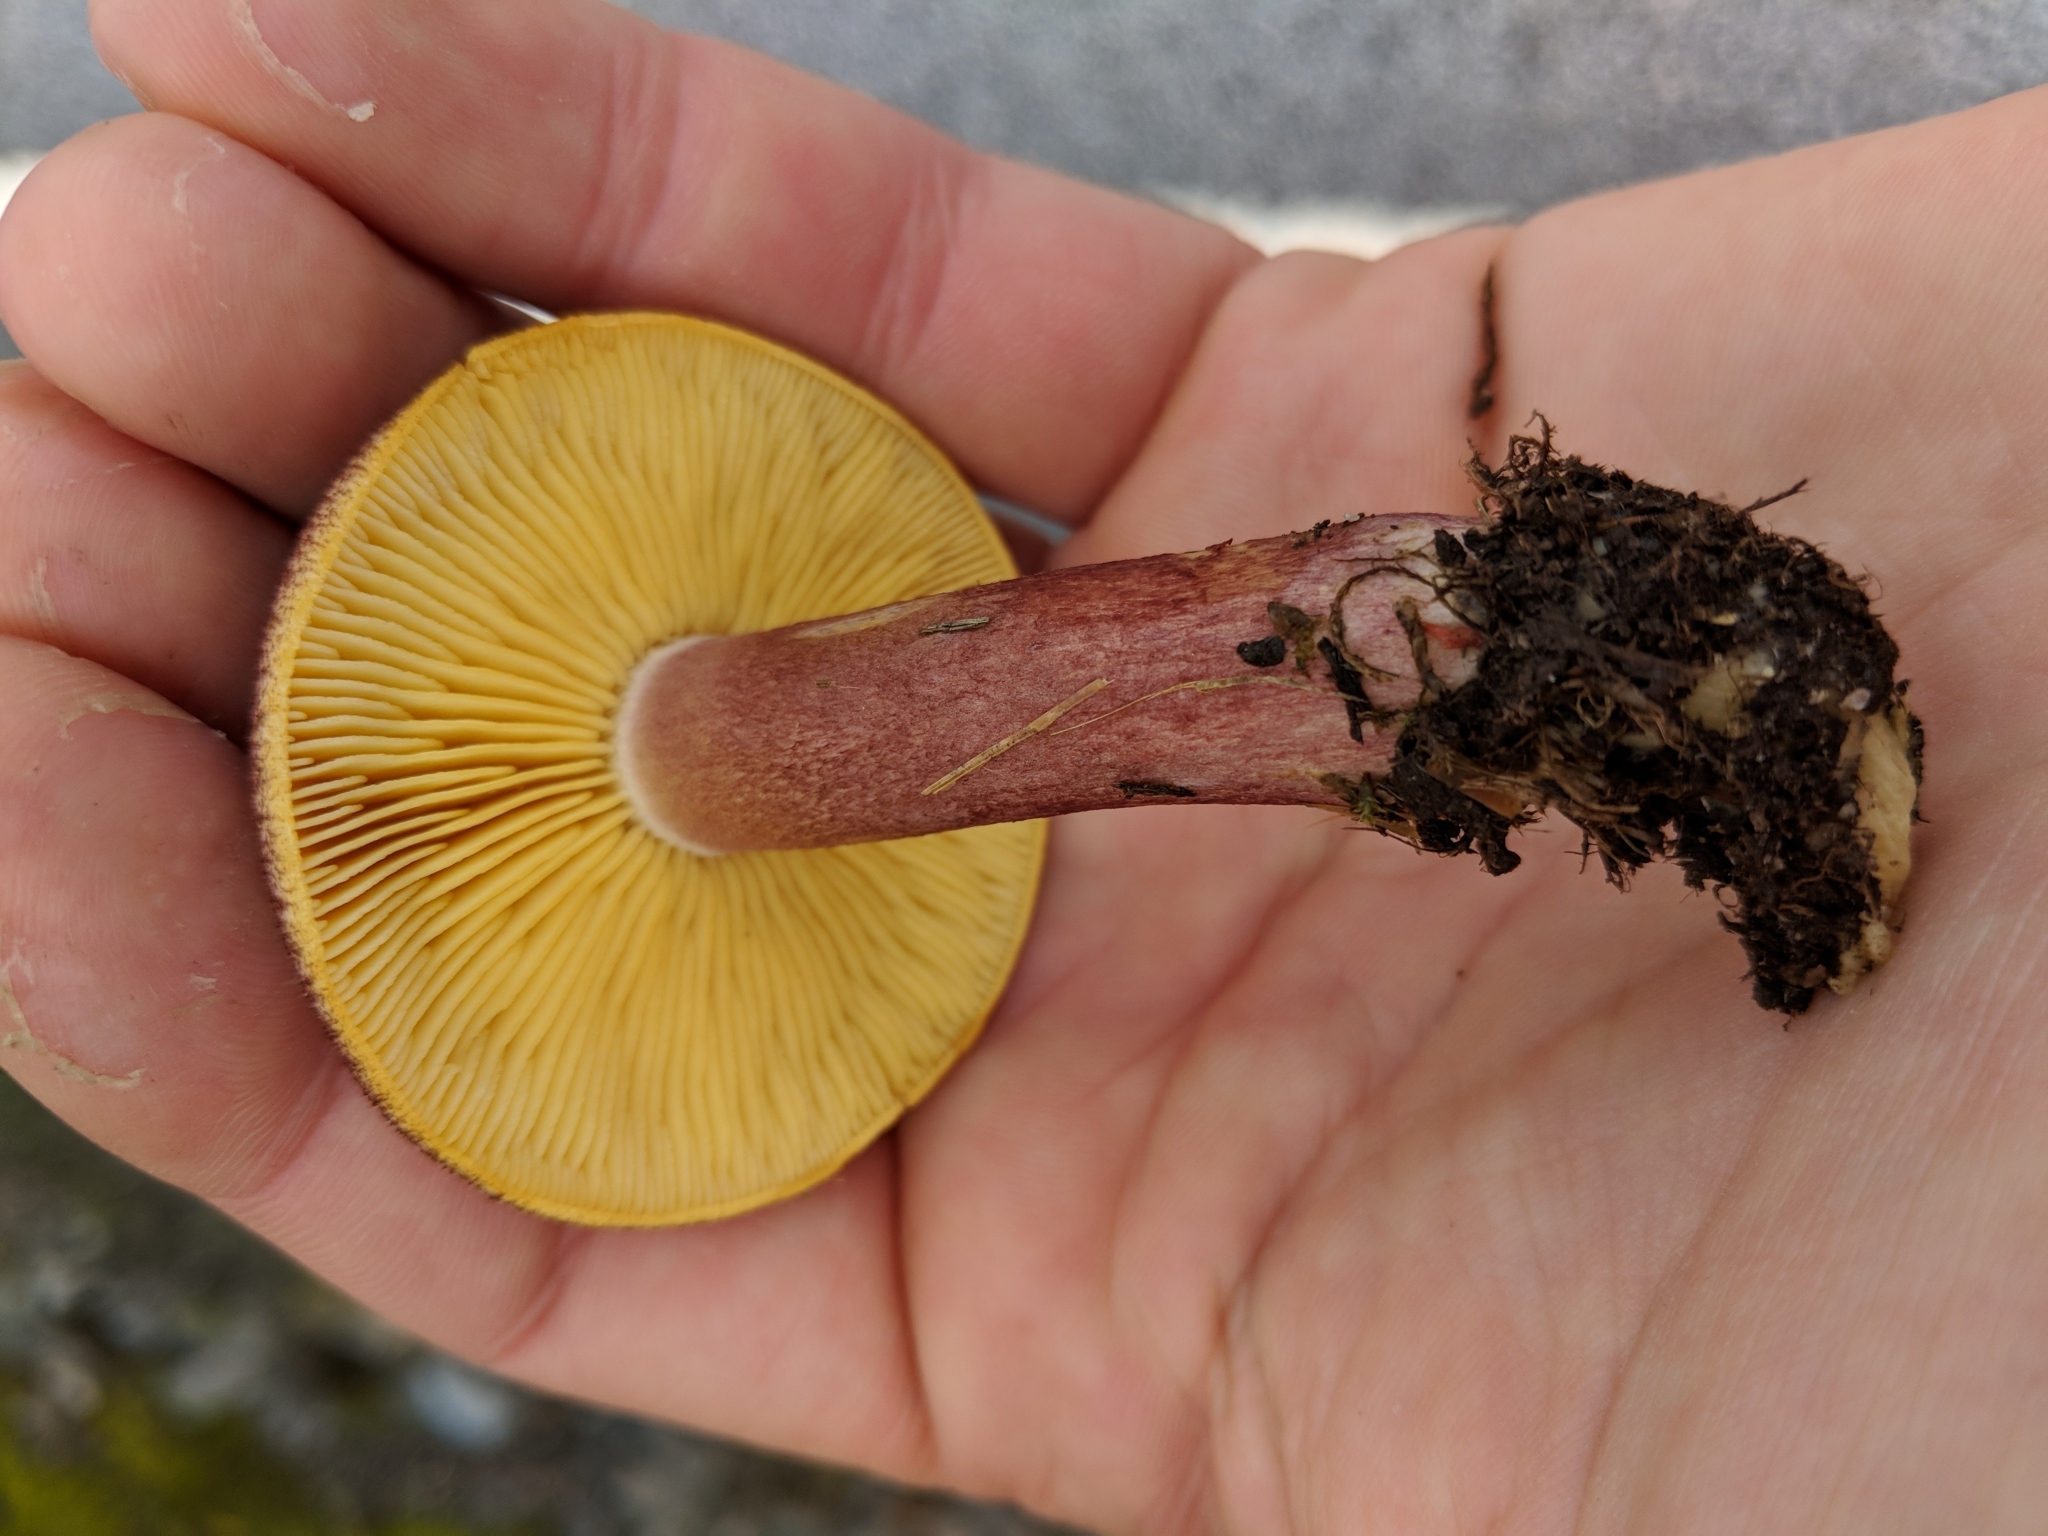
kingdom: Fungi
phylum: Basidiomycota
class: Agaricomycetes
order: Agaricales
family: Tricholomataceae
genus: Tricholomopsis
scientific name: Tricholomopsis rutilans
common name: Plums and custard
